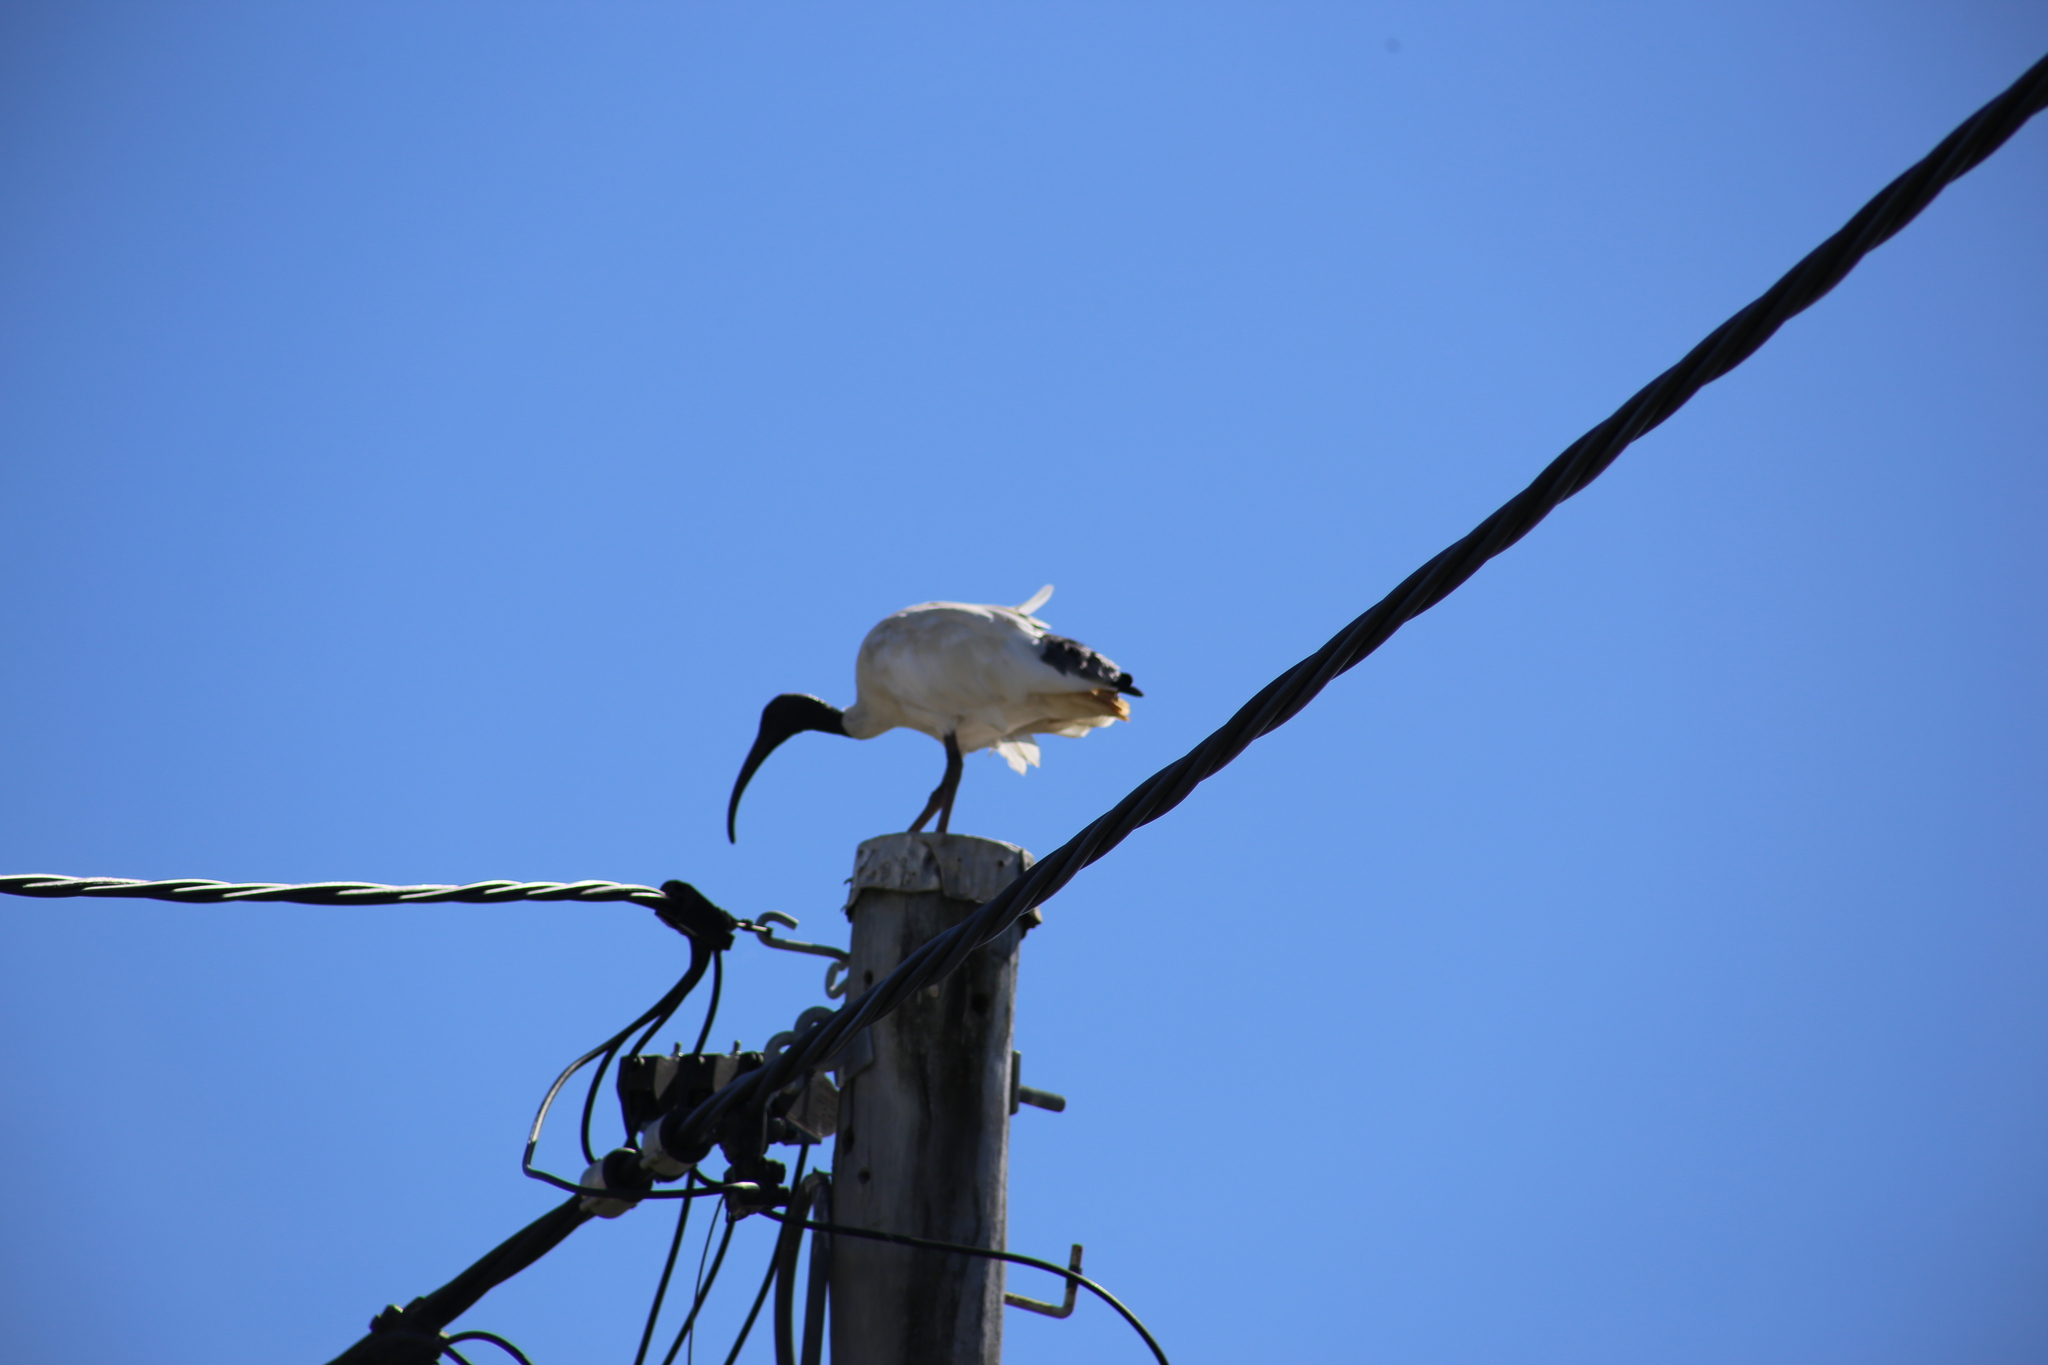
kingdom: Animalia
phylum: Chordata
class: Aves
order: Pelecaniformes
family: Threskiornithidae
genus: Threskiornis
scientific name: Threskiornis molucca
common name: Australian white ibis
